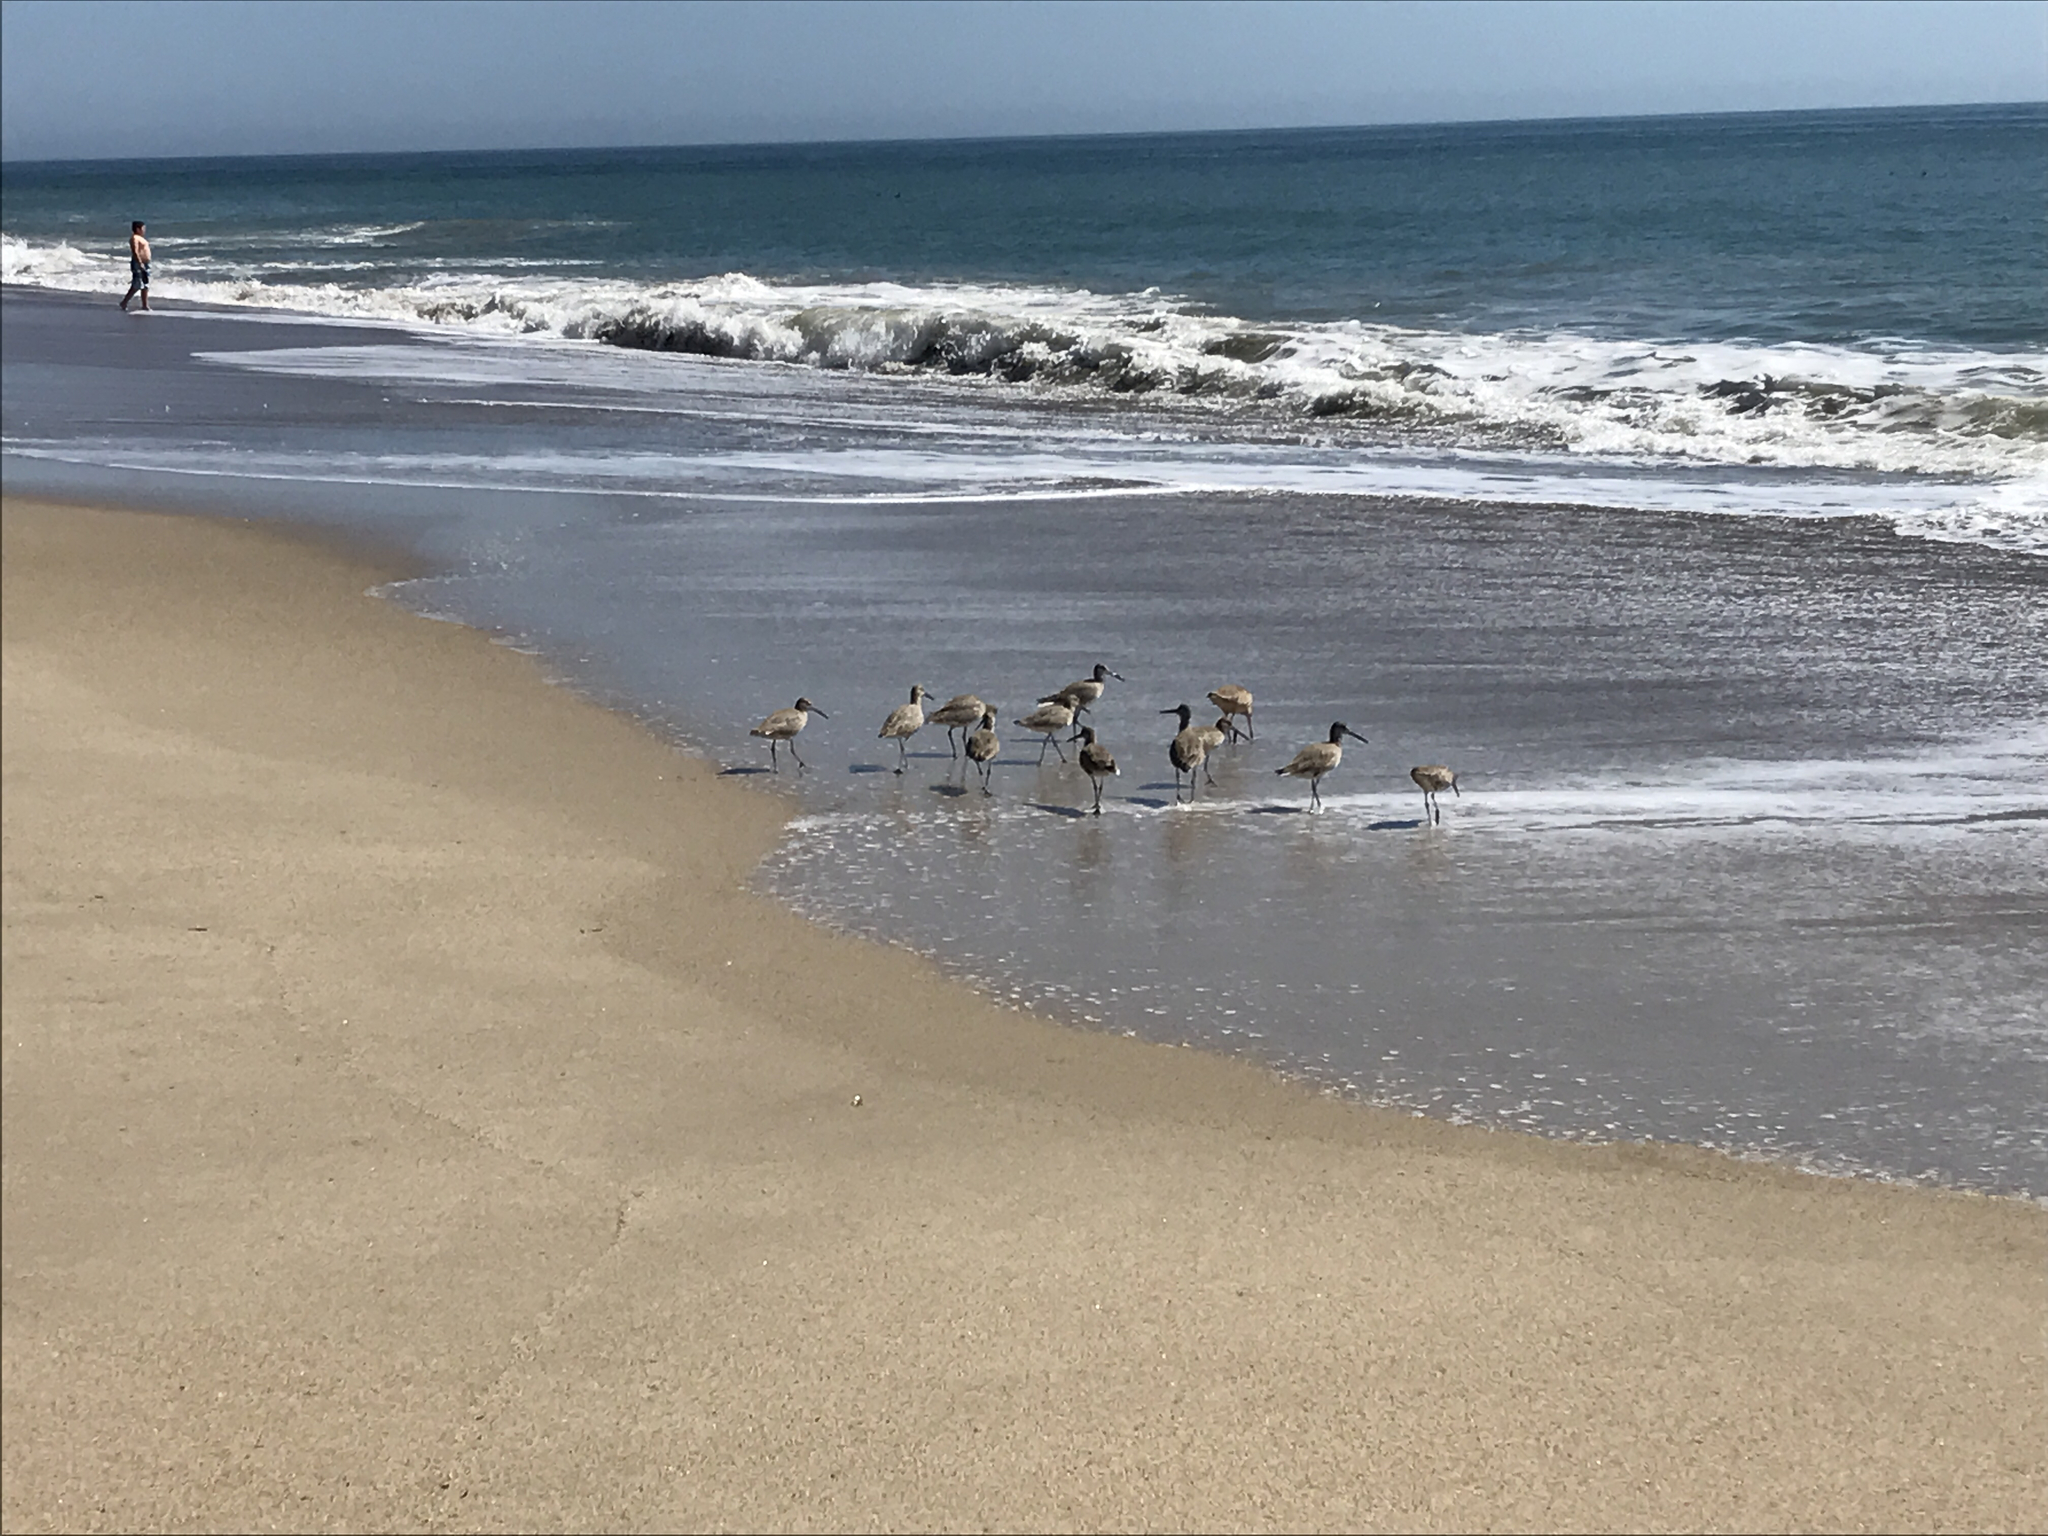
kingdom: Animalia
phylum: Chordata
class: Aves
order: Charadriiformes
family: Scolopacidae
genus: Tringa
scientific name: Tringa semipalmata
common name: Willet
